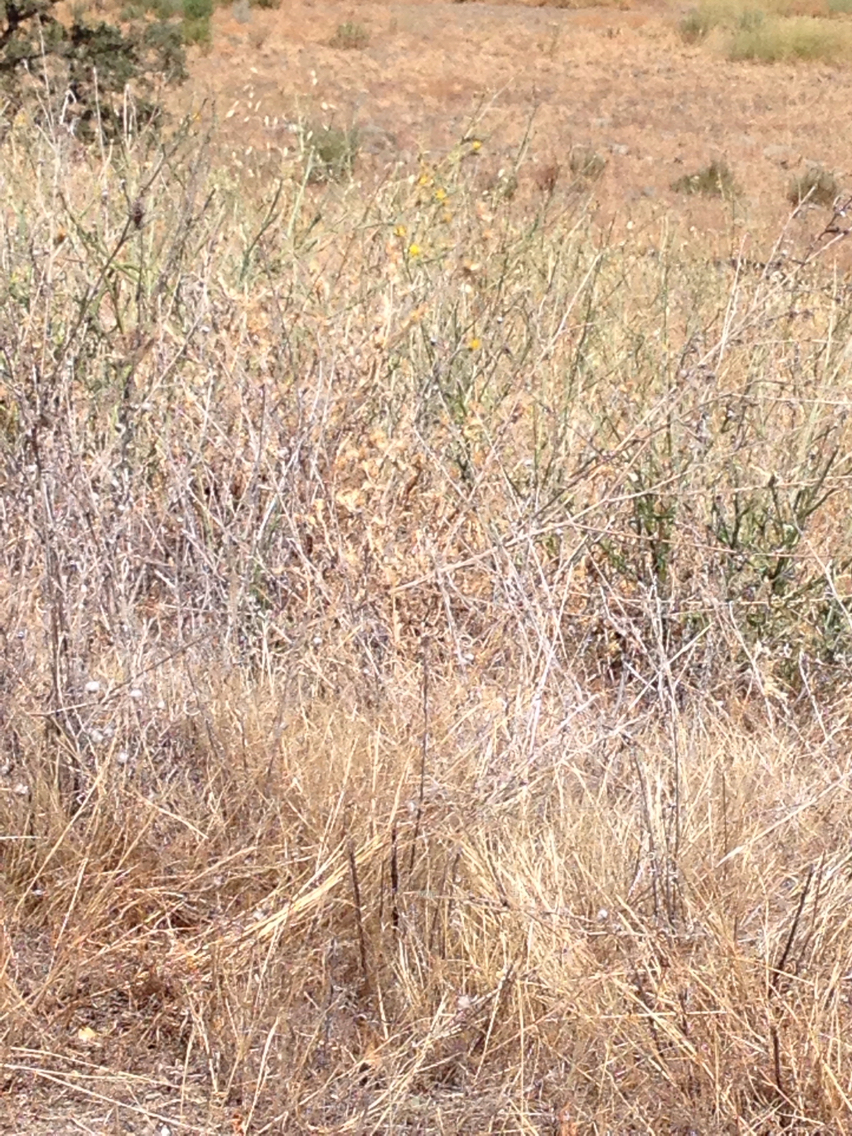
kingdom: Plantae
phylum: Tracheophyta
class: Magnoliopsida
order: Asterales
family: Asteraceae
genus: Centaurea
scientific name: Centaurea solstitialis
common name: Yellow star-thistle
